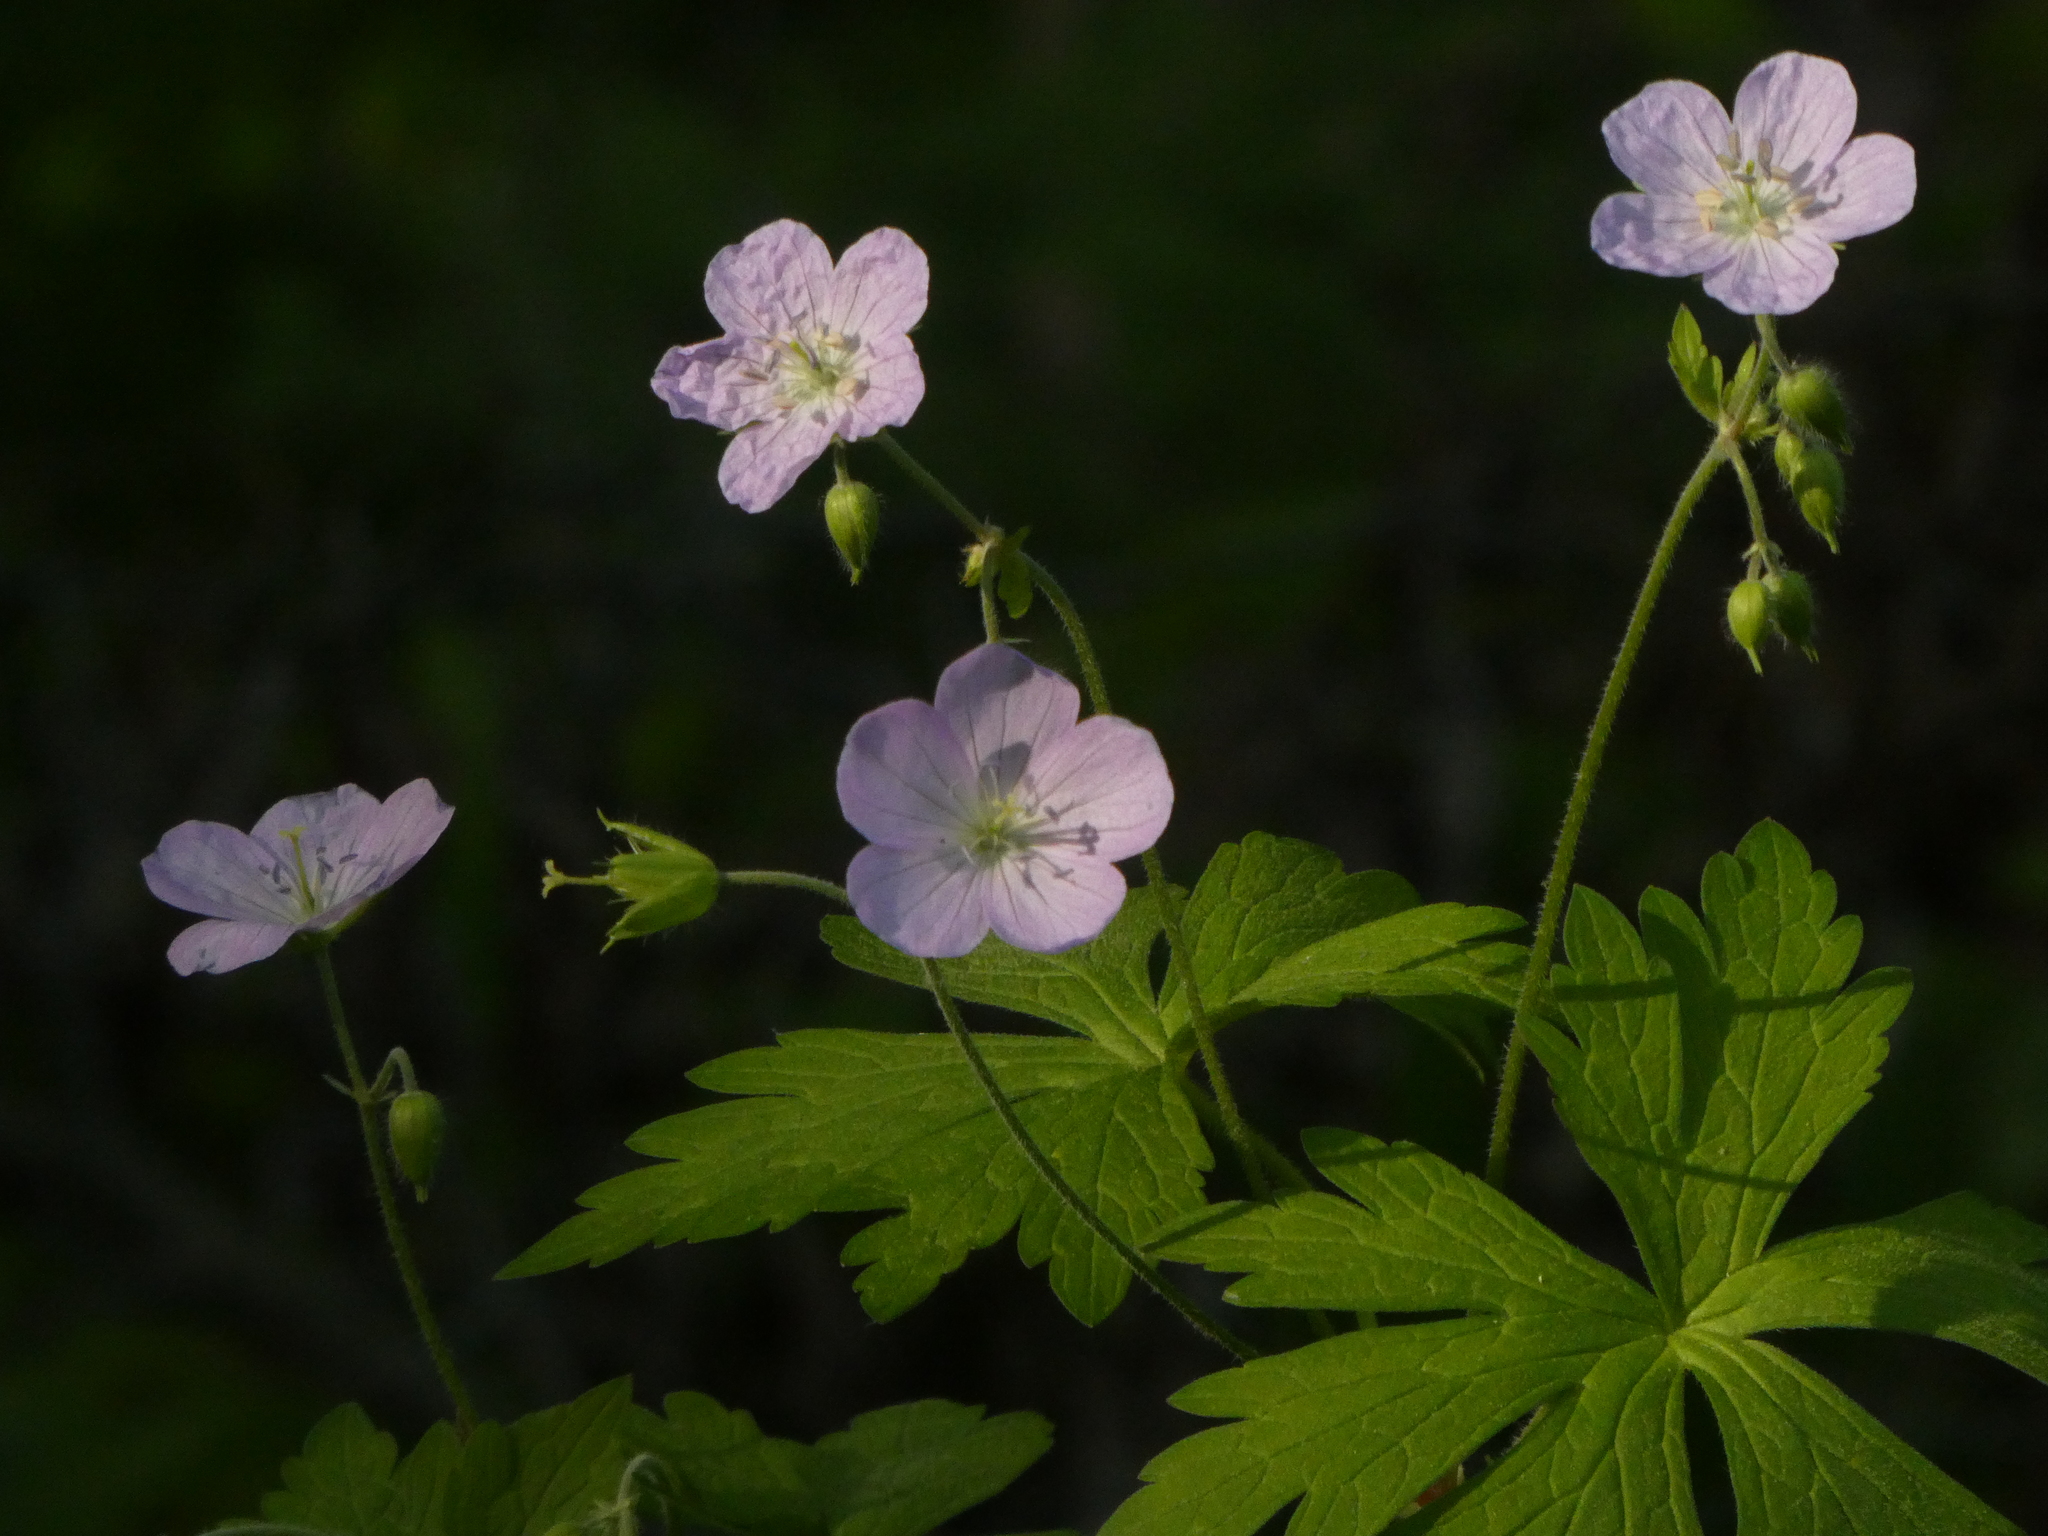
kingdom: Plantae
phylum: Tracheophyta
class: Magnoliopsida
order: Geraniales
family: Geraniaceae
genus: Geranium
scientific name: Geranium maculatum
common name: Spotted geranium
